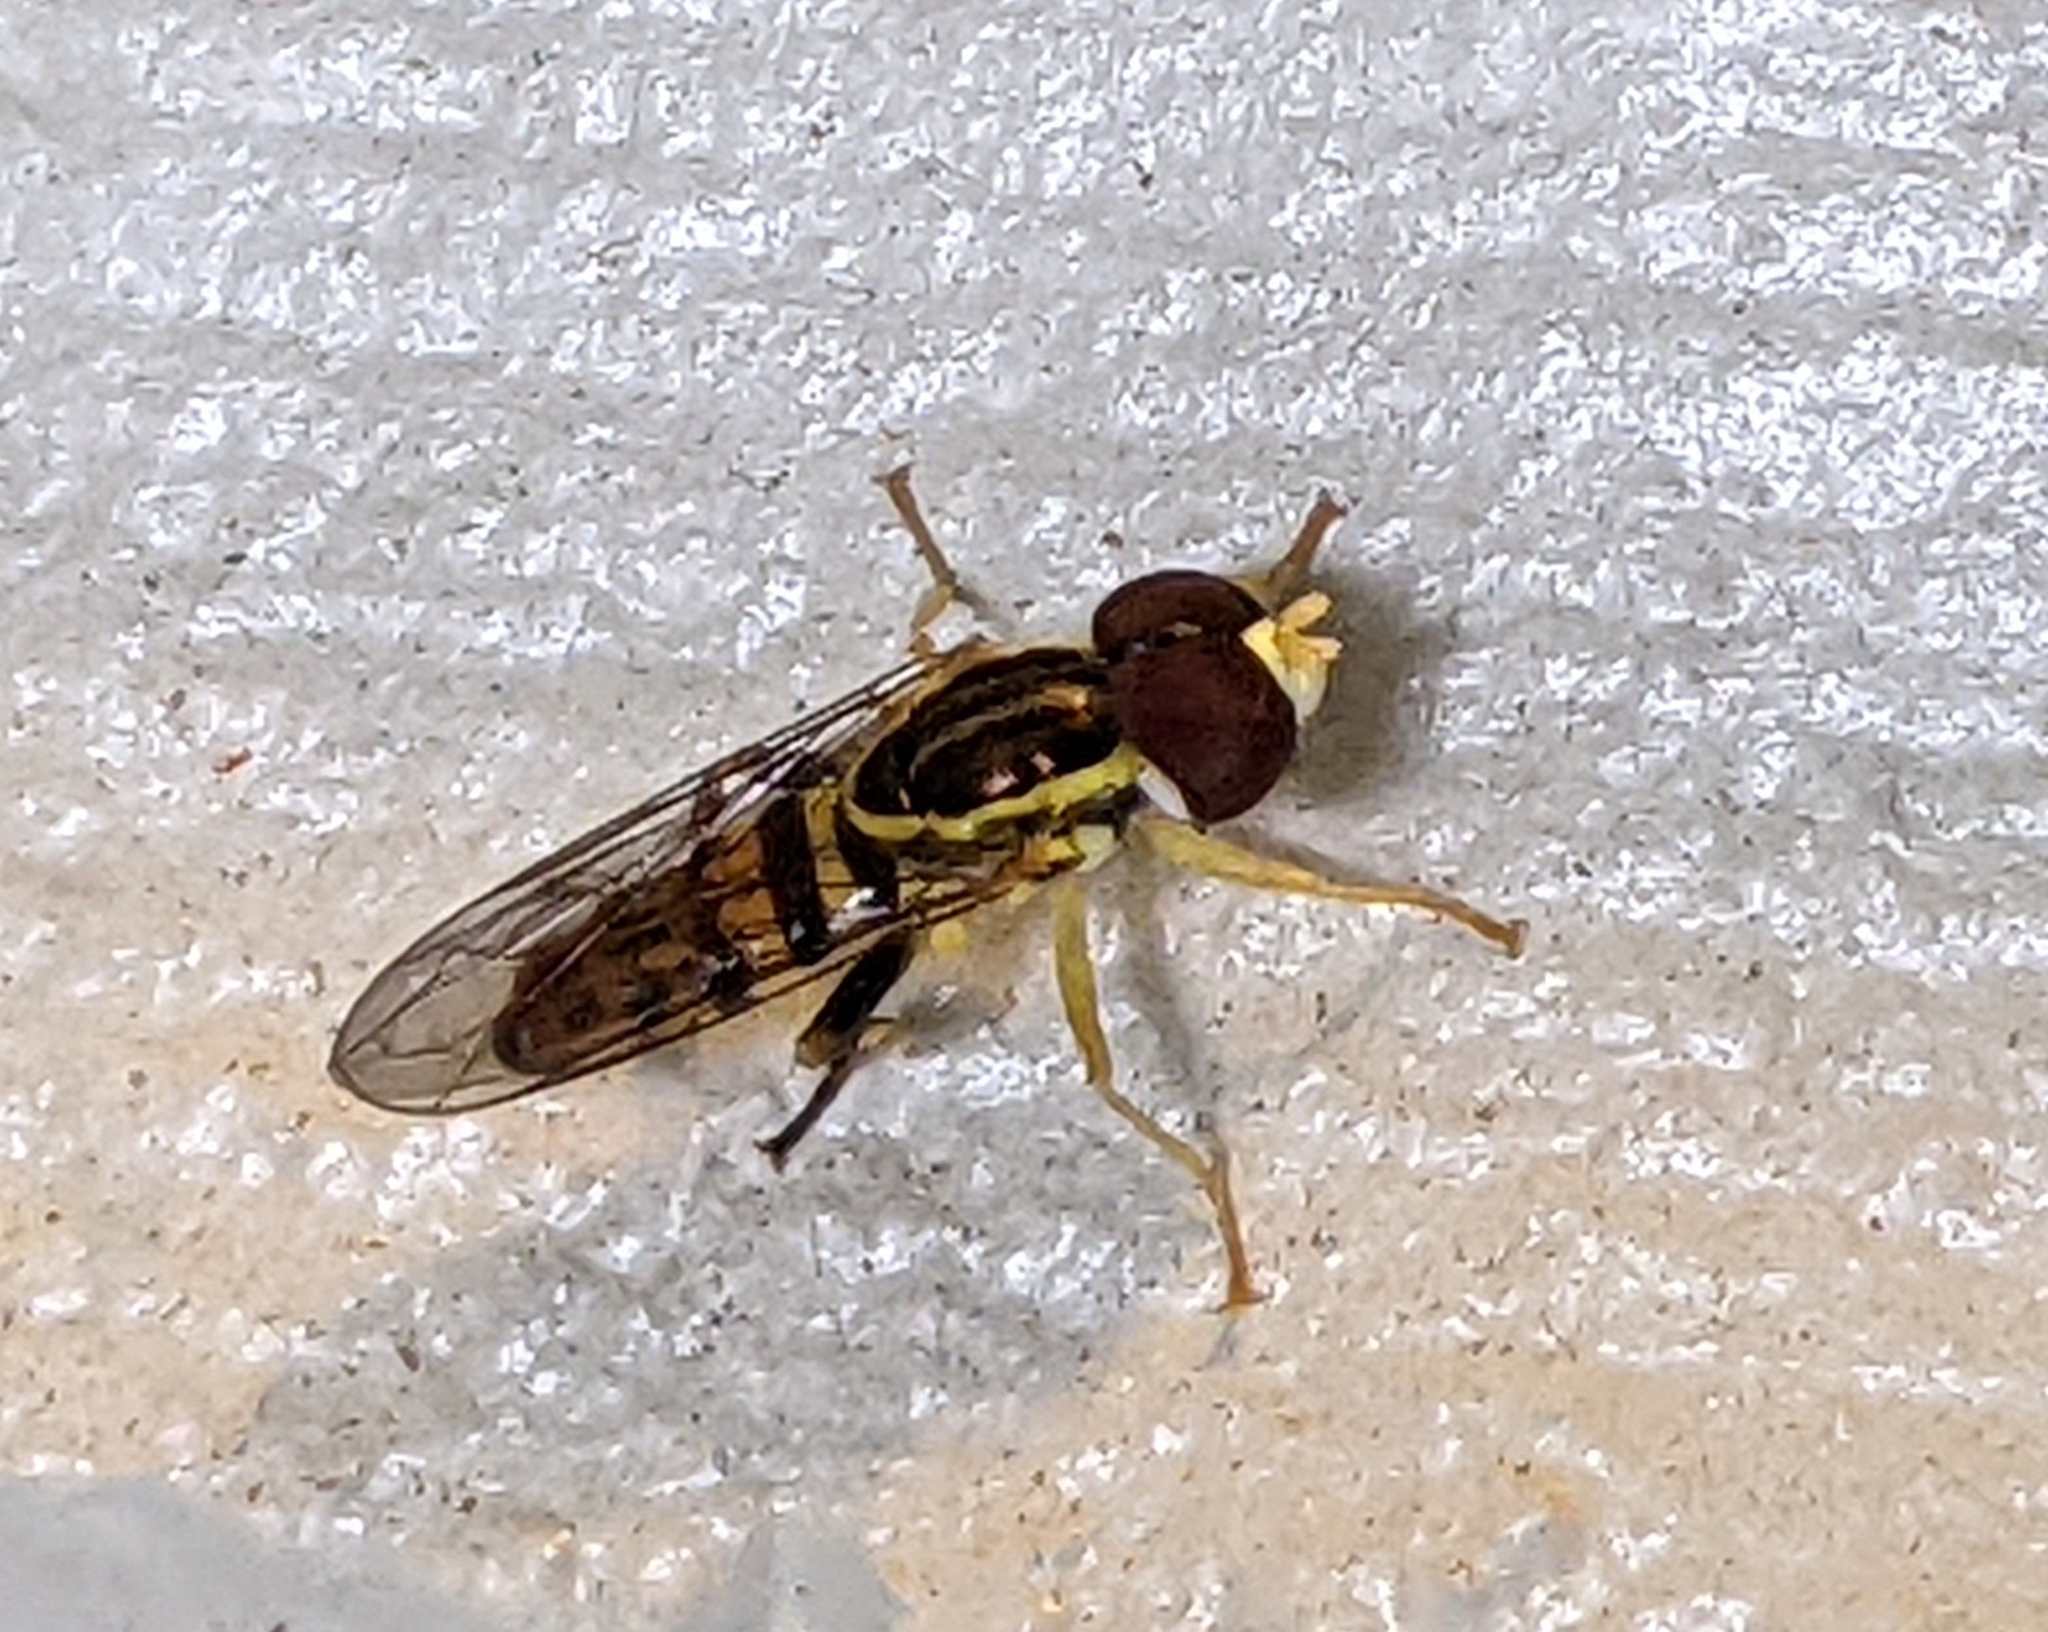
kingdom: Animalia
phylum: Arthropoda
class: Insecta
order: Diptera
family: Syrphidae
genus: Toxomerus
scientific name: Toxomerus geminatus
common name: Eastern calligrapher
